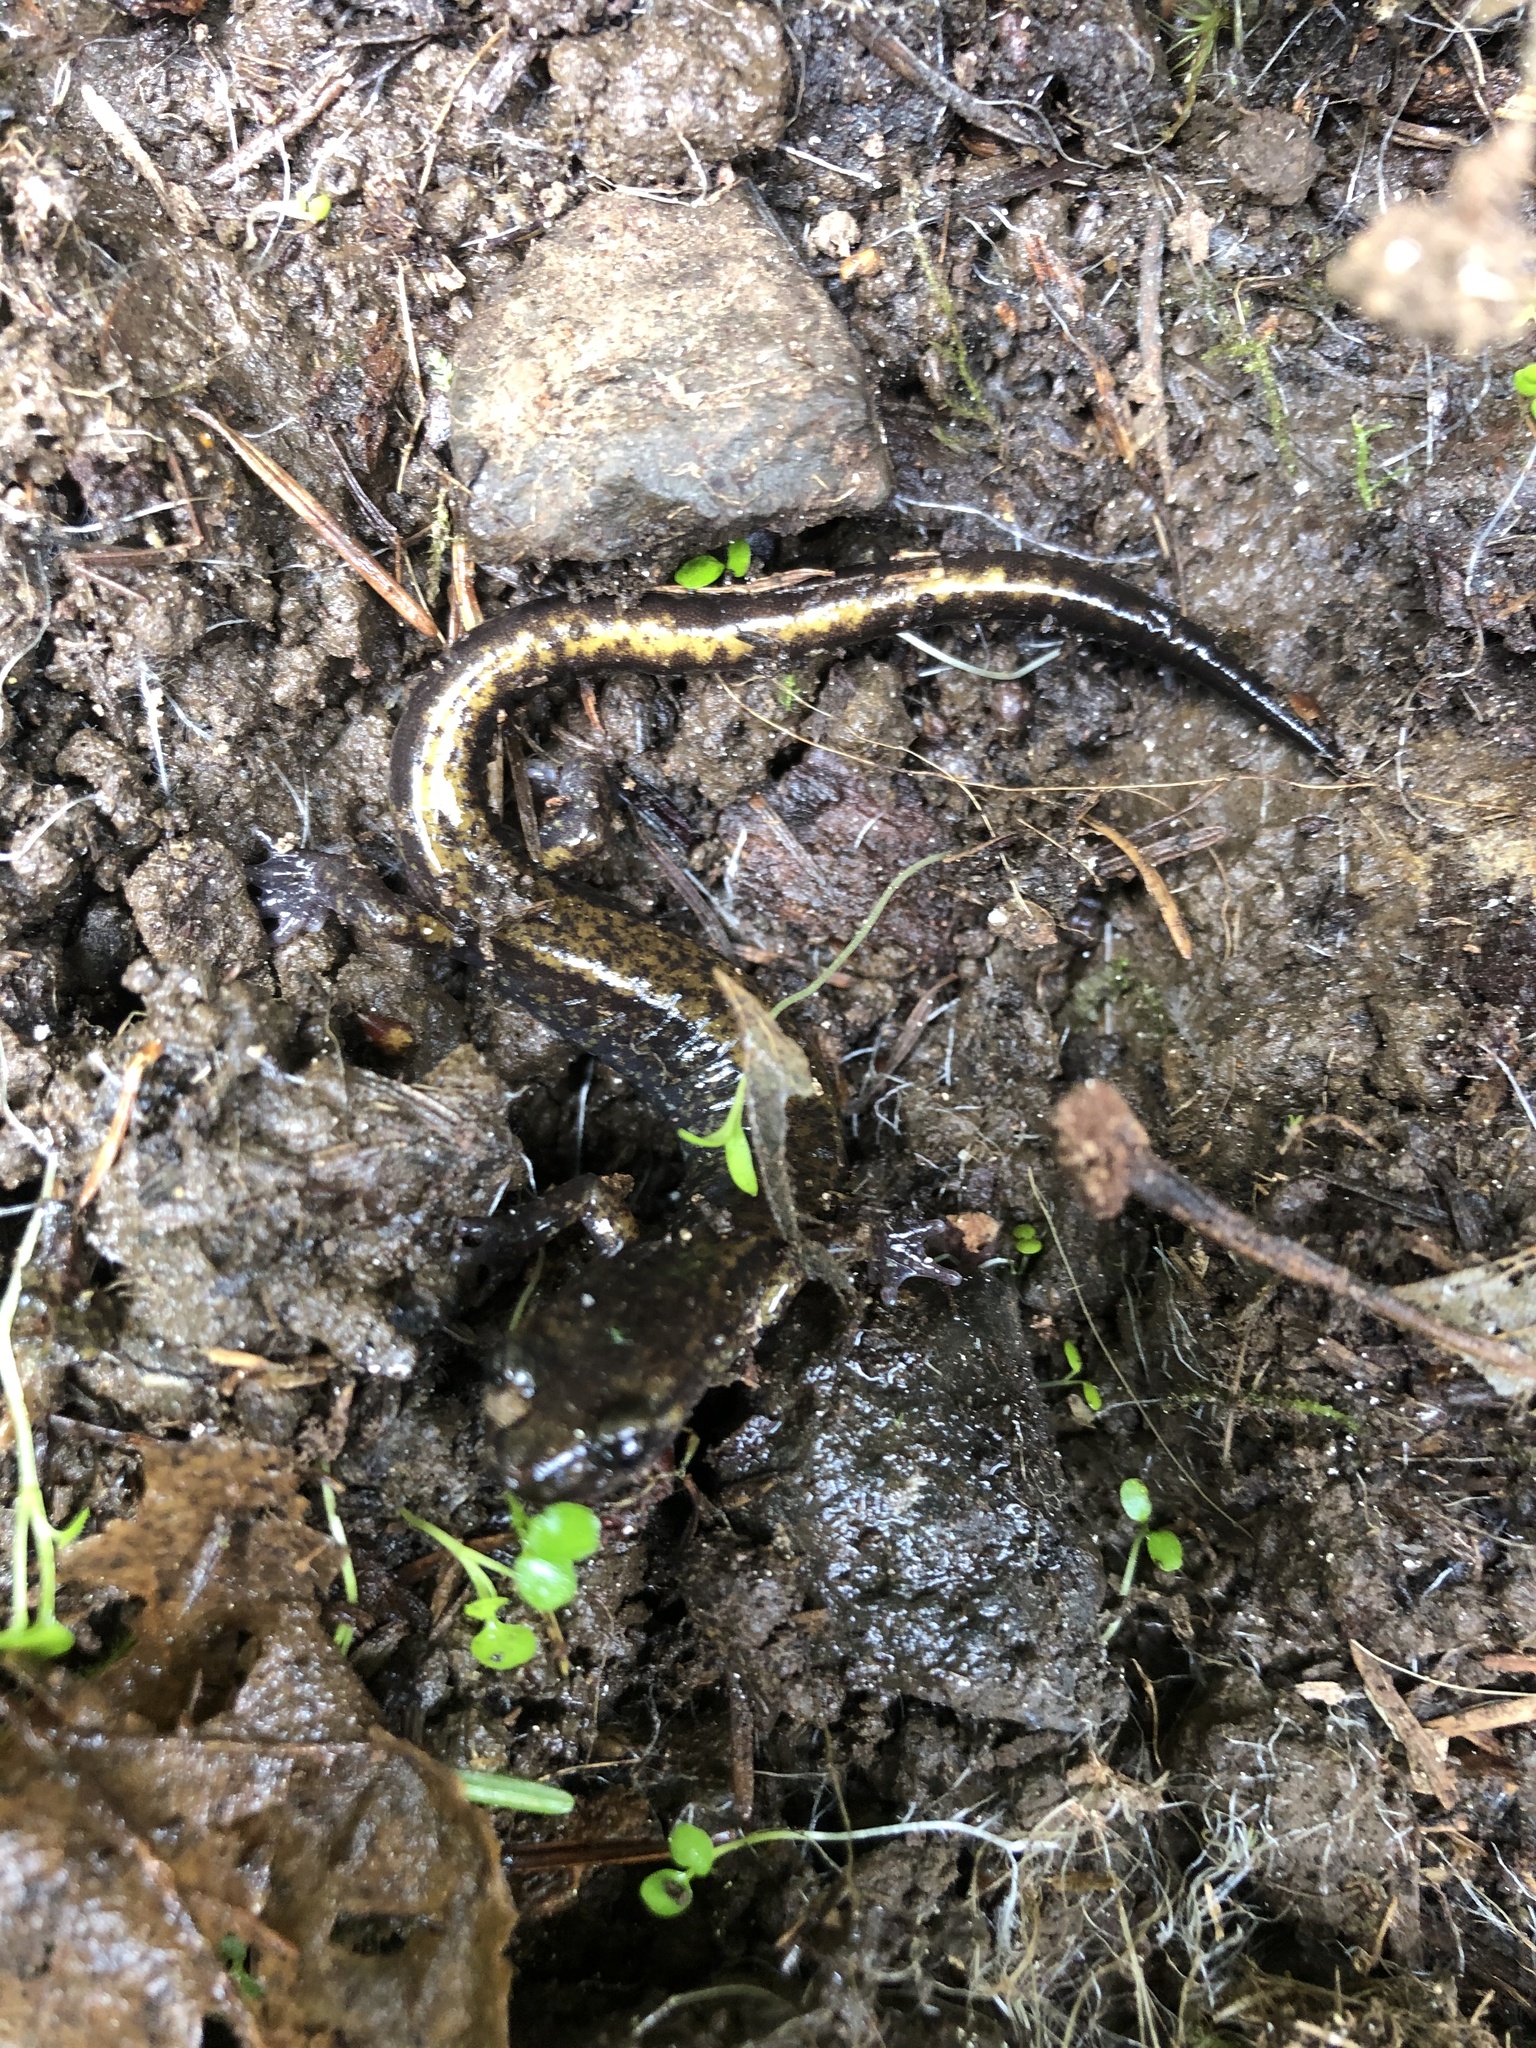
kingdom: Animalia
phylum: Chordata
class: Amphibia
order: Caudata
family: Plethodontidae
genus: Plethodon
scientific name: Plethodon dunni
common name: Dunn's salamander
